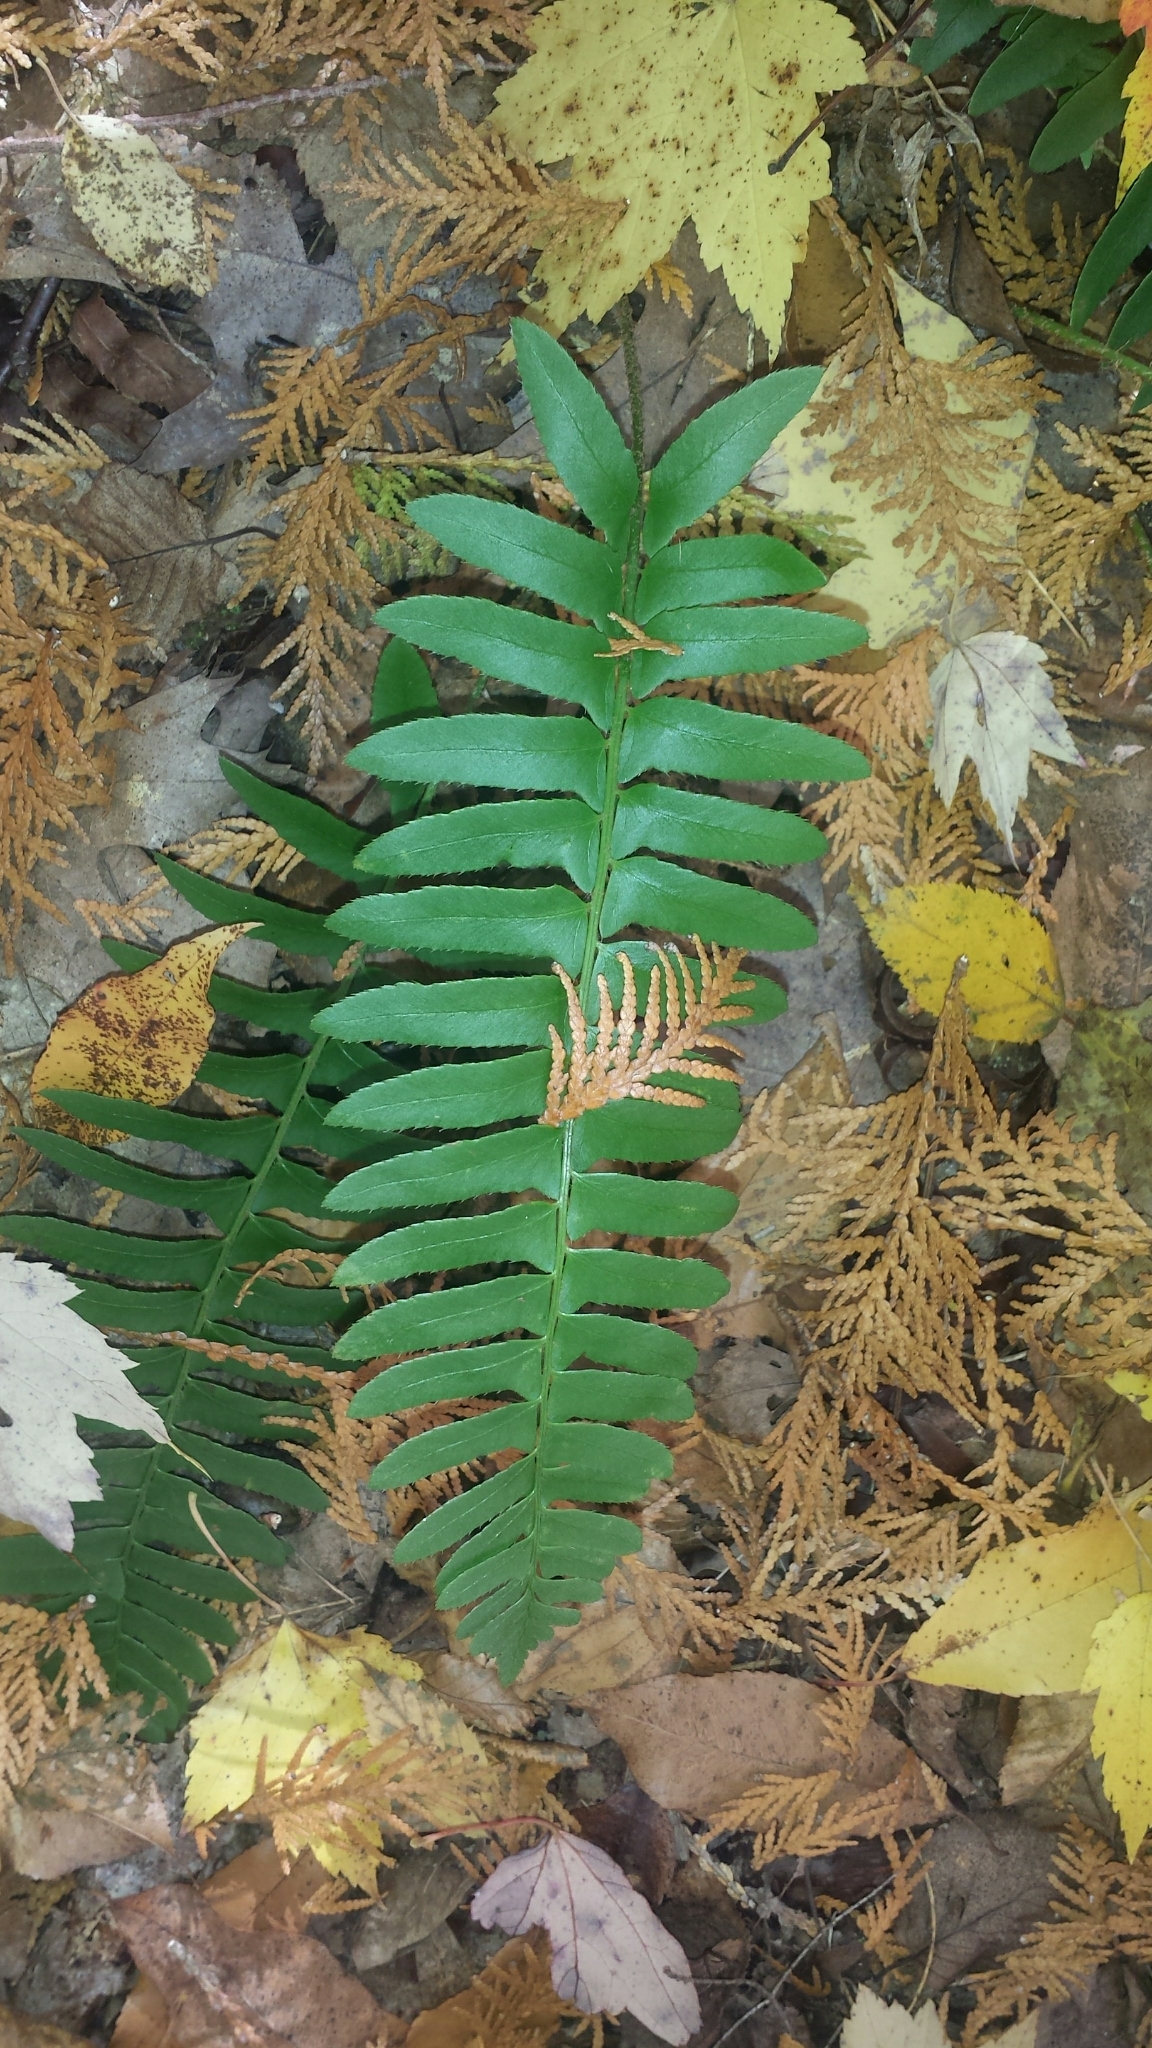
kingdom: Plantae
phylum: Tracheophyta
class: Polypodiopsida
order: Polypodiales
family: Dryopteridaceae
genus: Polystichum
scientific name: Polystichum acrostichoides
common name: Christmas fern
